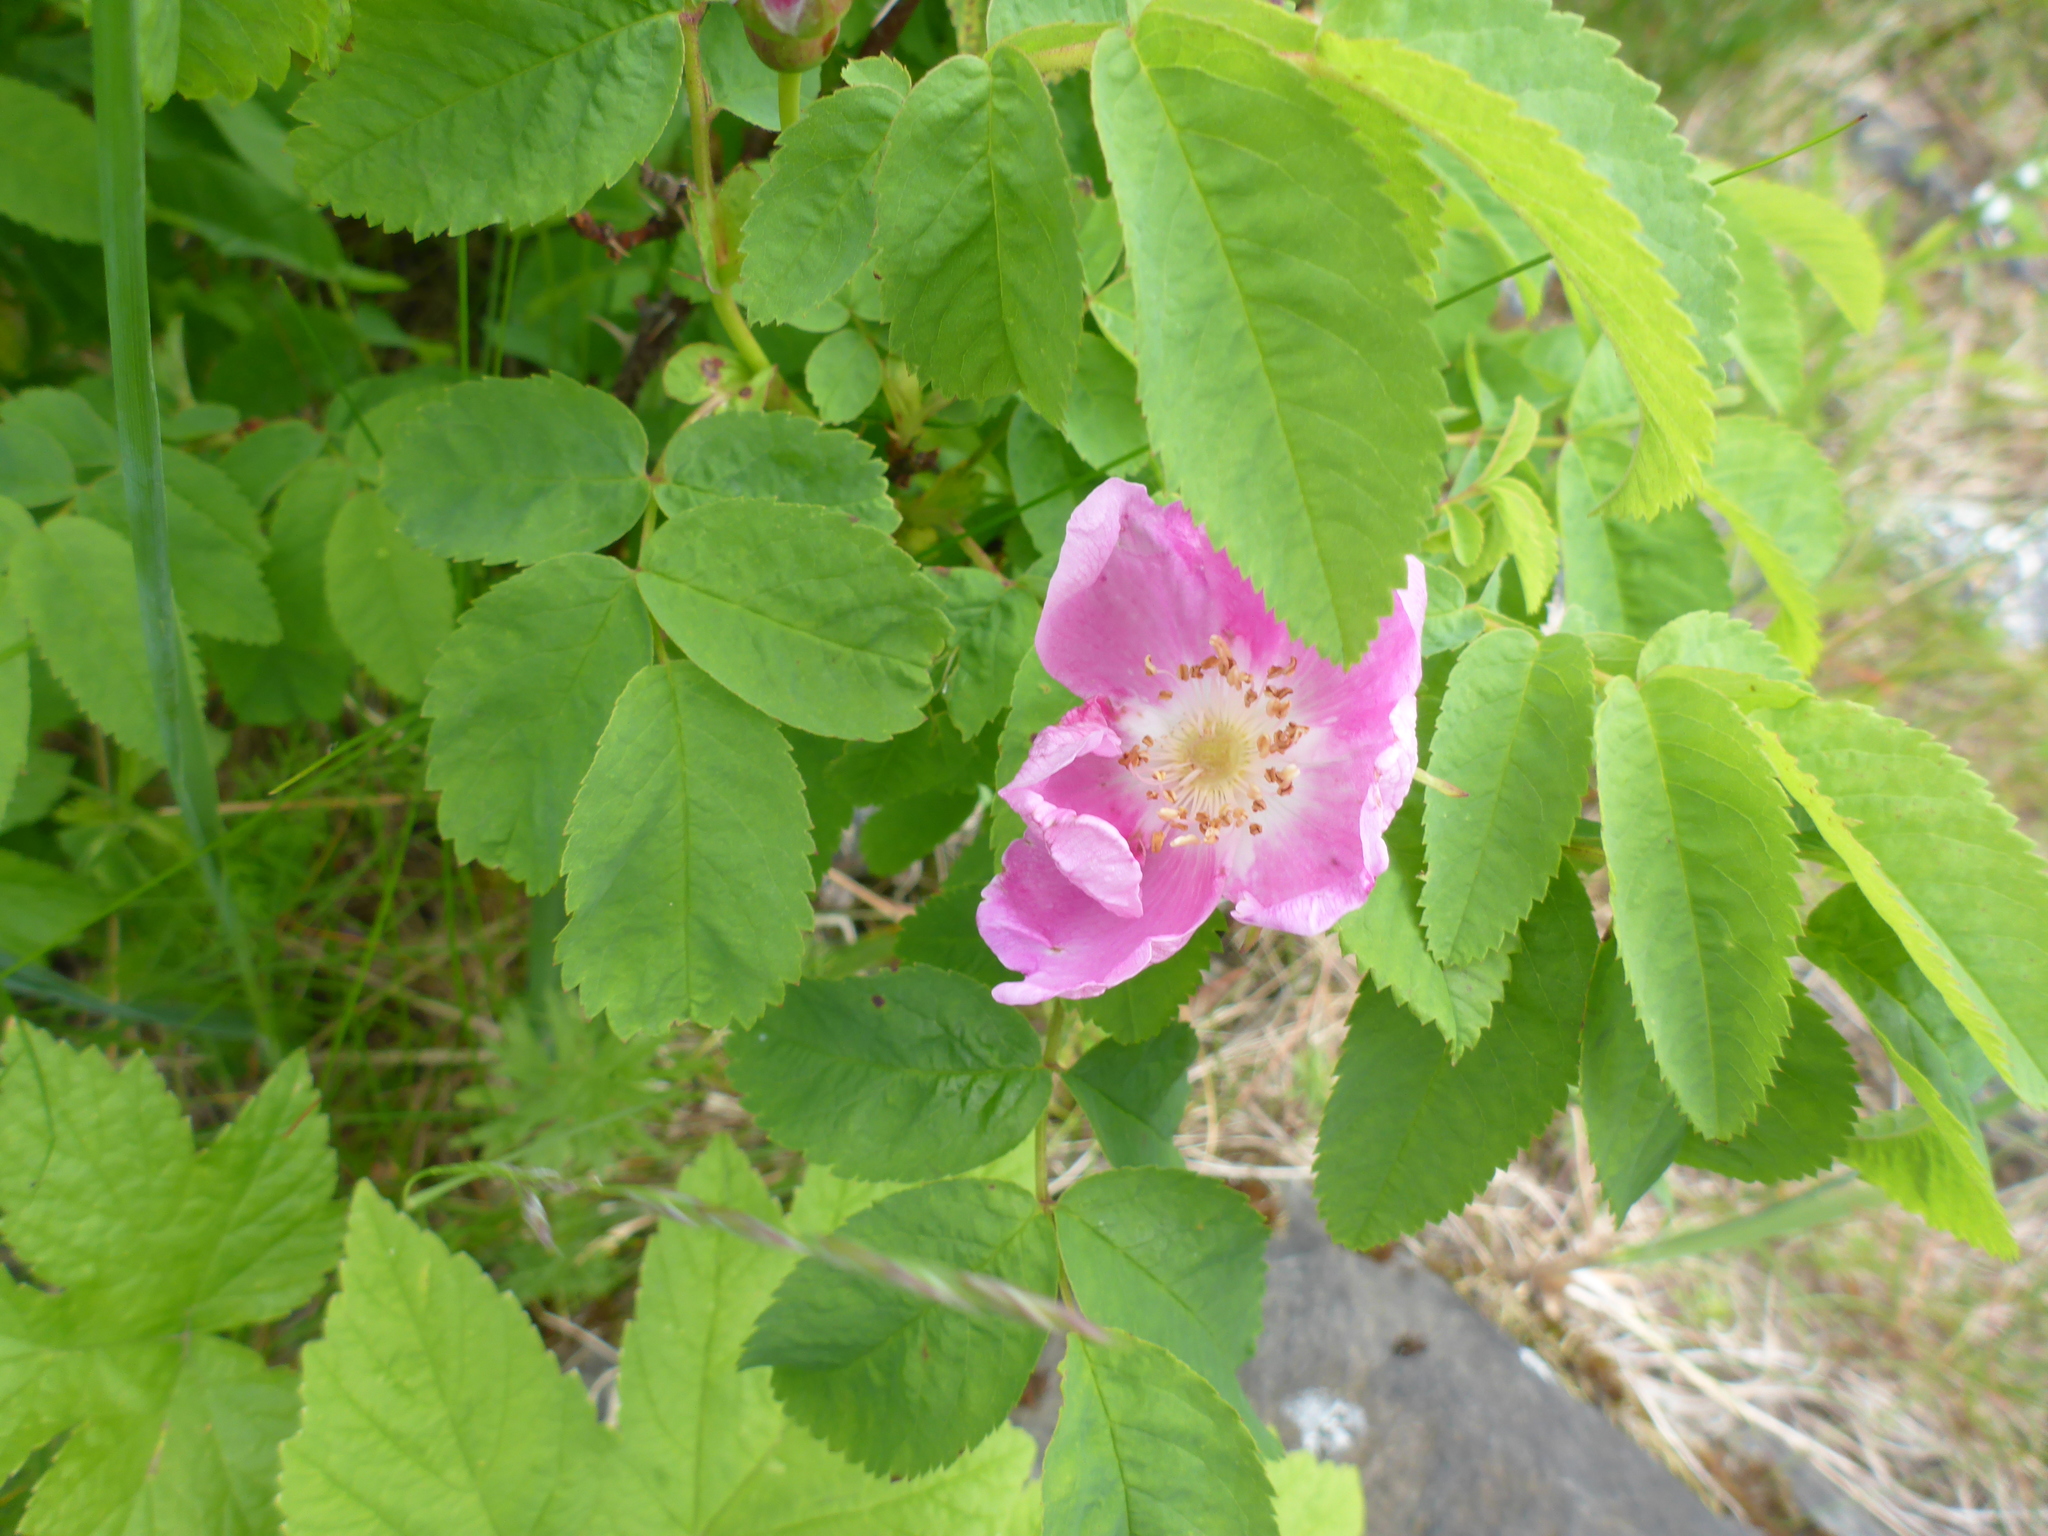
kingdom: Plantae
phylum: Tracheophyta
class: Magnoliopsida
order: Rosales
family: Rosaceae
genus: Rosa
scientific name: Rosa nutkana
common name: Nootka rose
